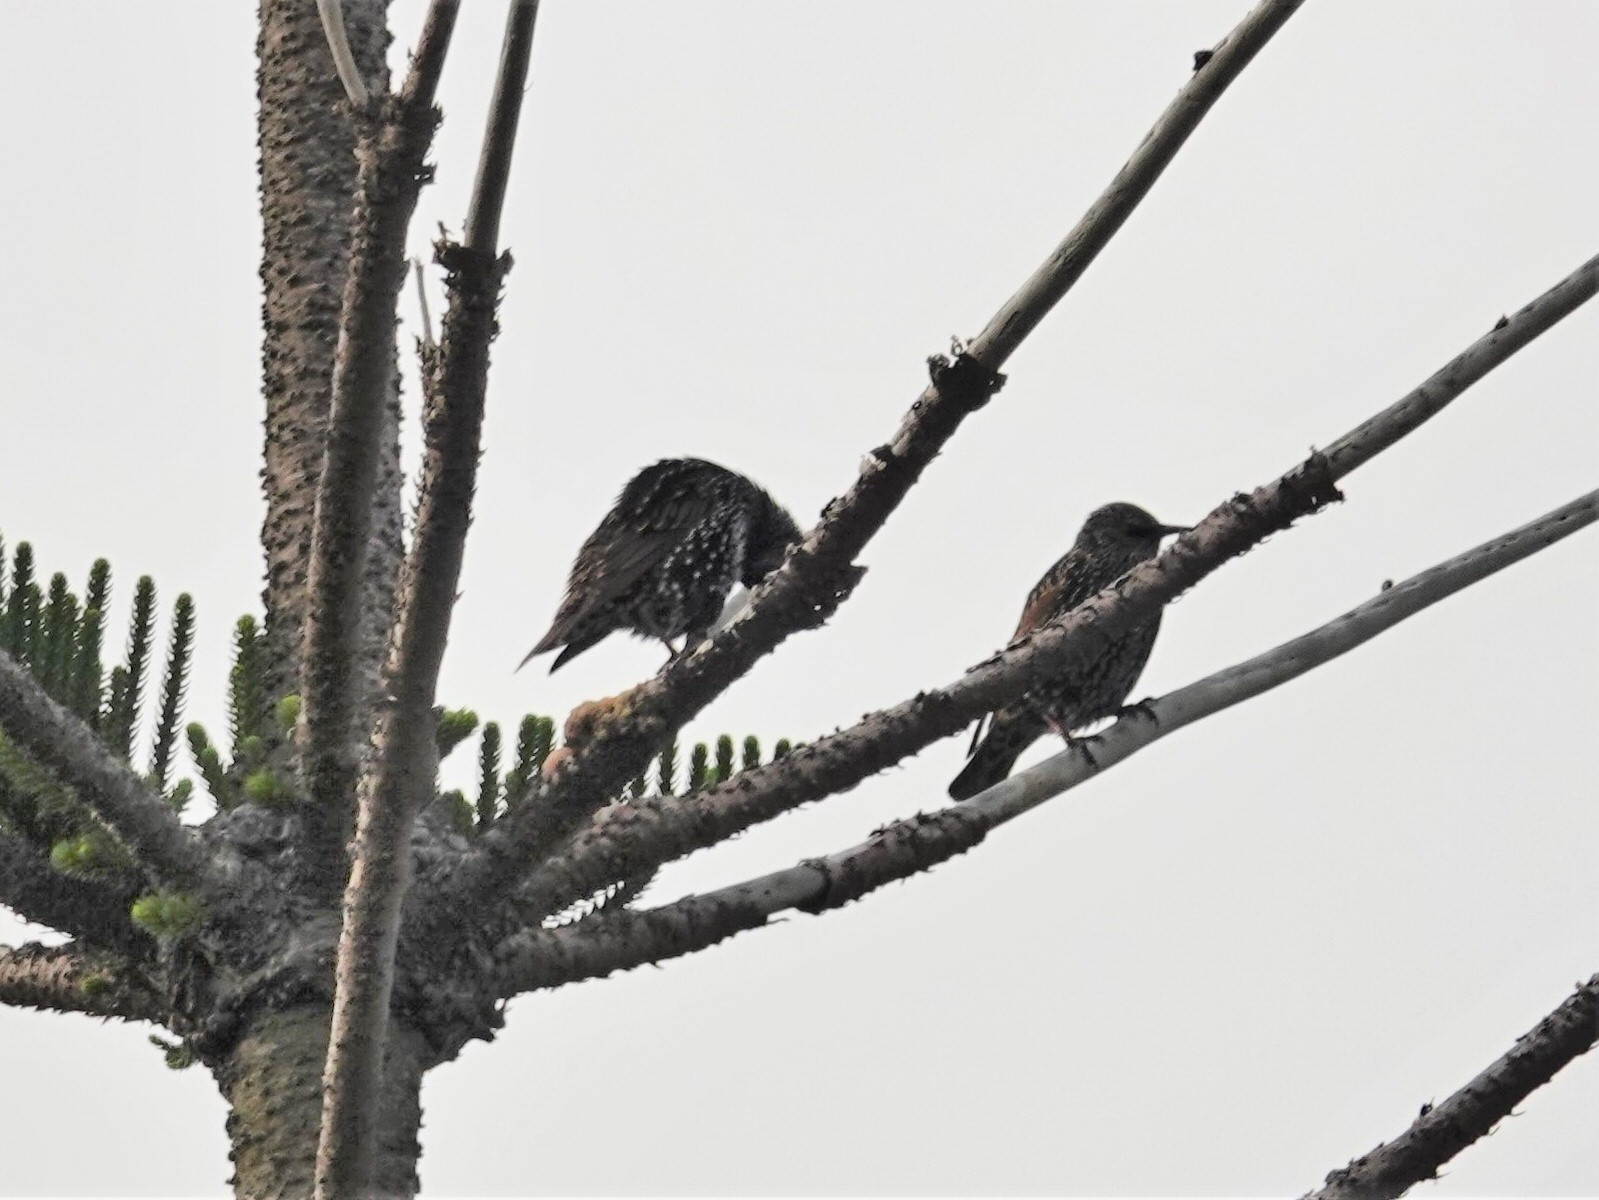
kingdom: Animalia
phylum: Chordata
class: Aves
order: Passeriformes
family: Sturnidae
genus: Sturnus
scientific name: Sturnus vulgaris
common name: Common starling
